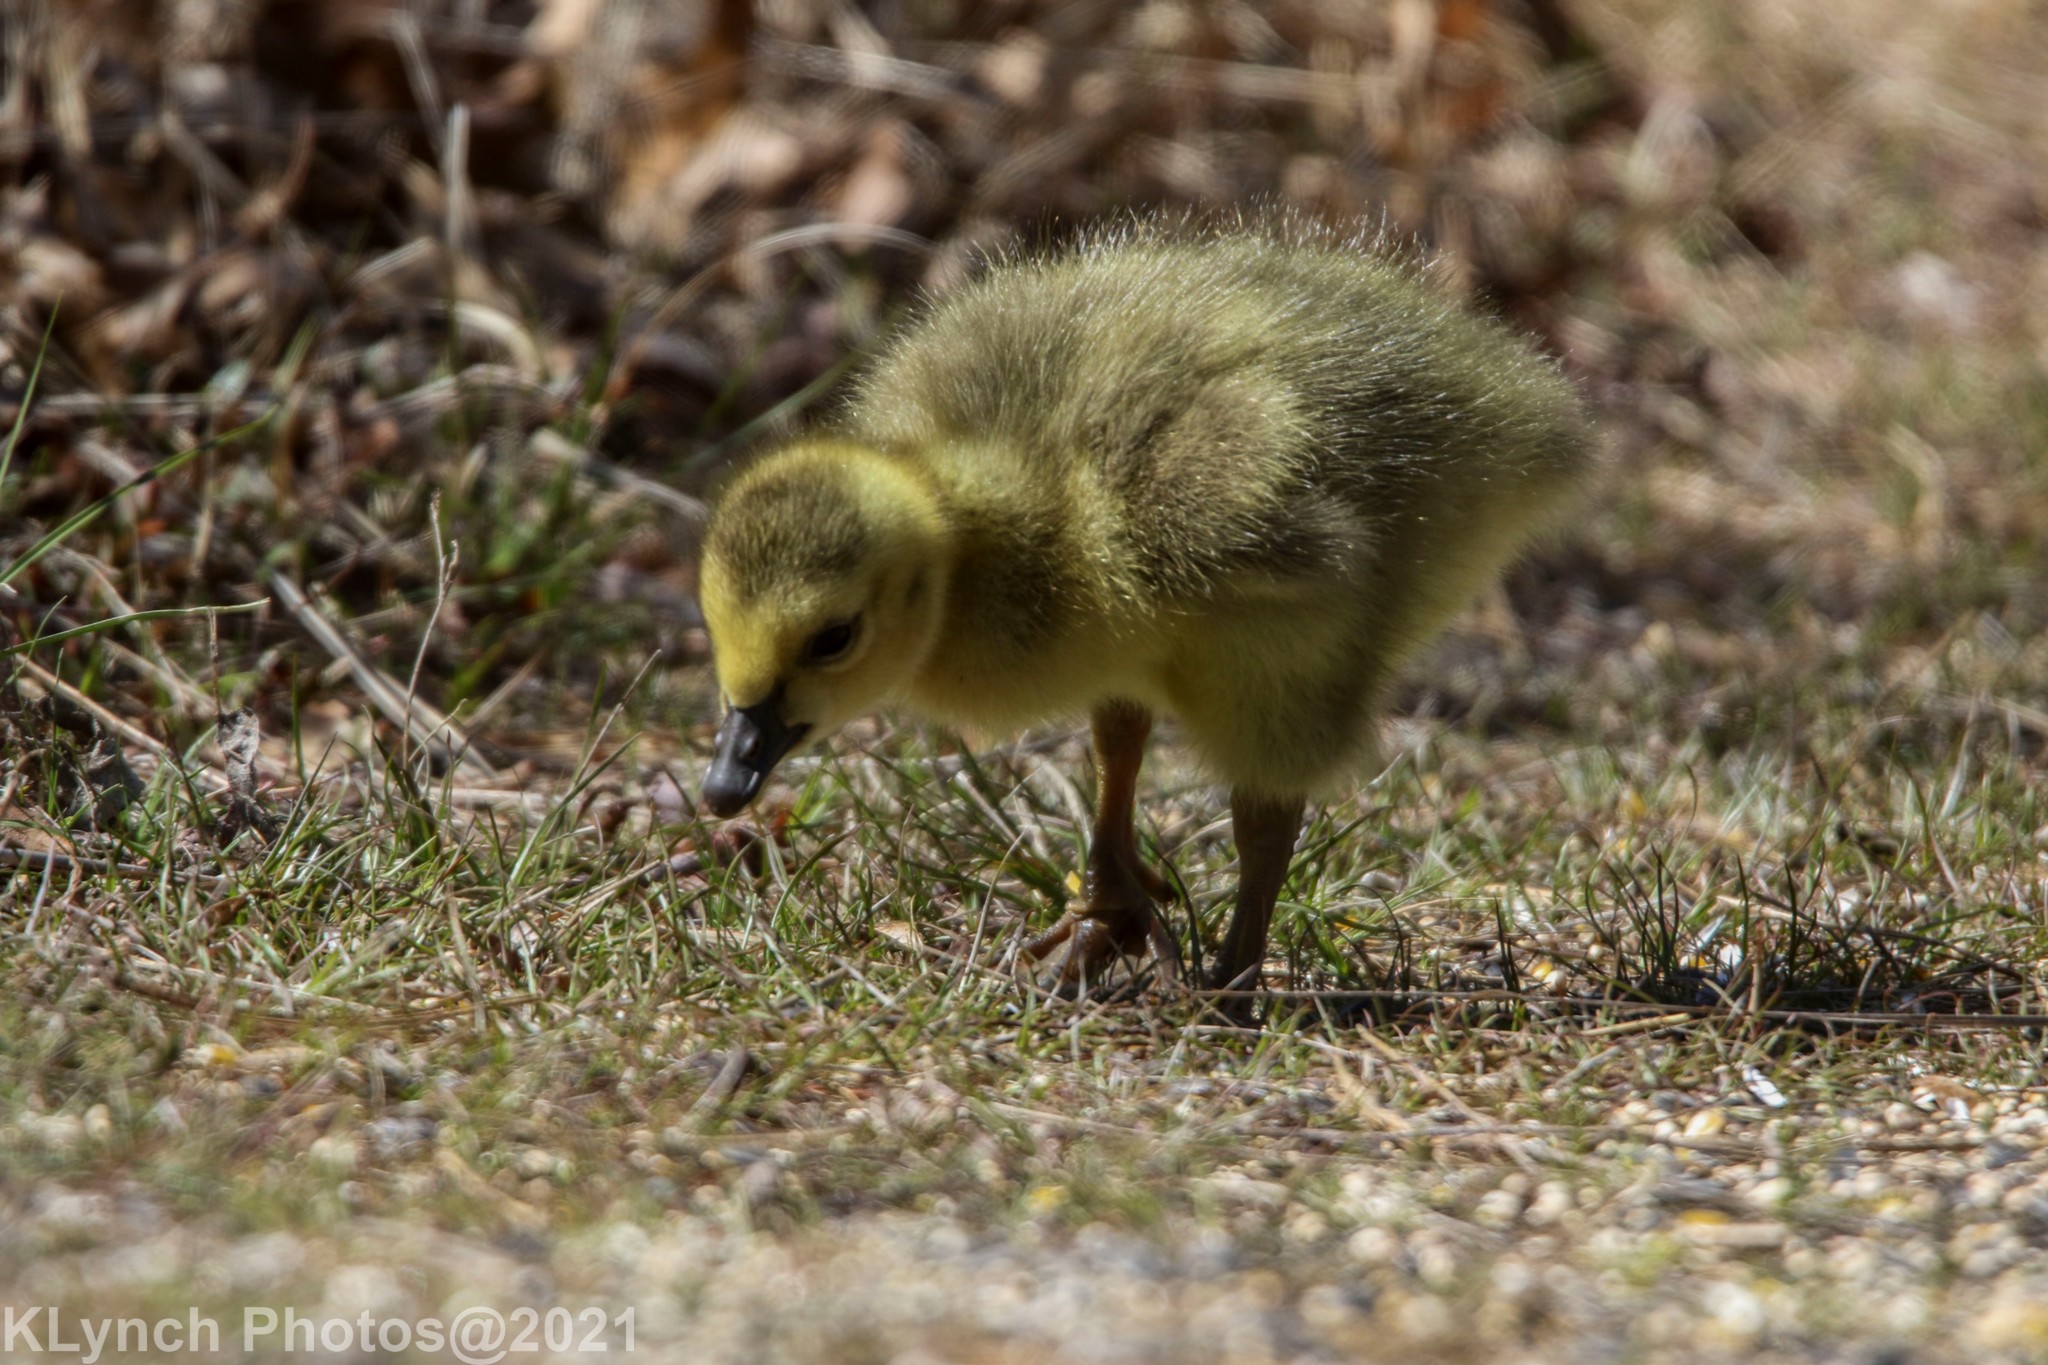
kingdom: Animalia
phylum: Chordata
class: Aves
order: Anseriformes
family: Anatidae
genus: Branta
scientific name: Branta canadensis
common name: Canada goose
